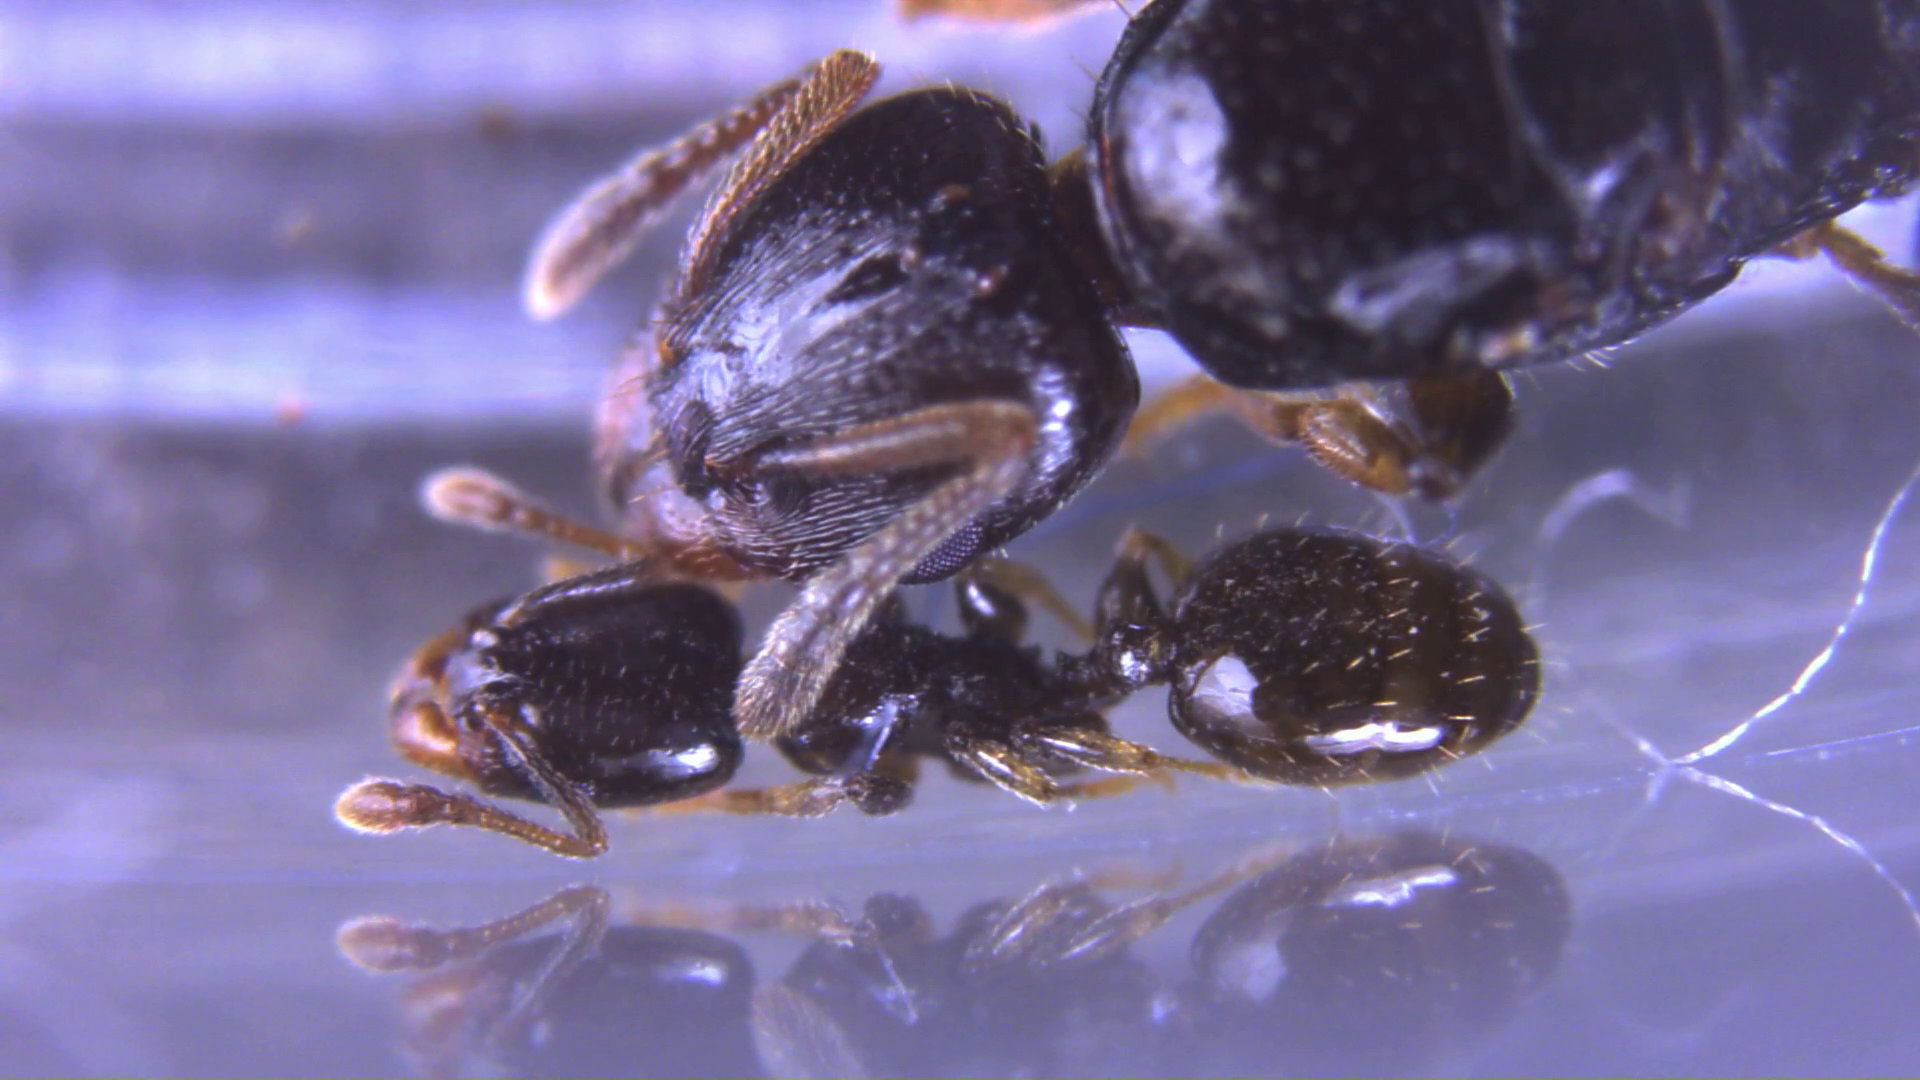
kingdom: Animalia
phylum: Arthropoda
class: Insecta
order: Hymenoptera
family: Formicidae
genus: Vollenhovia
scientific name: Vollenhovia acanthina
